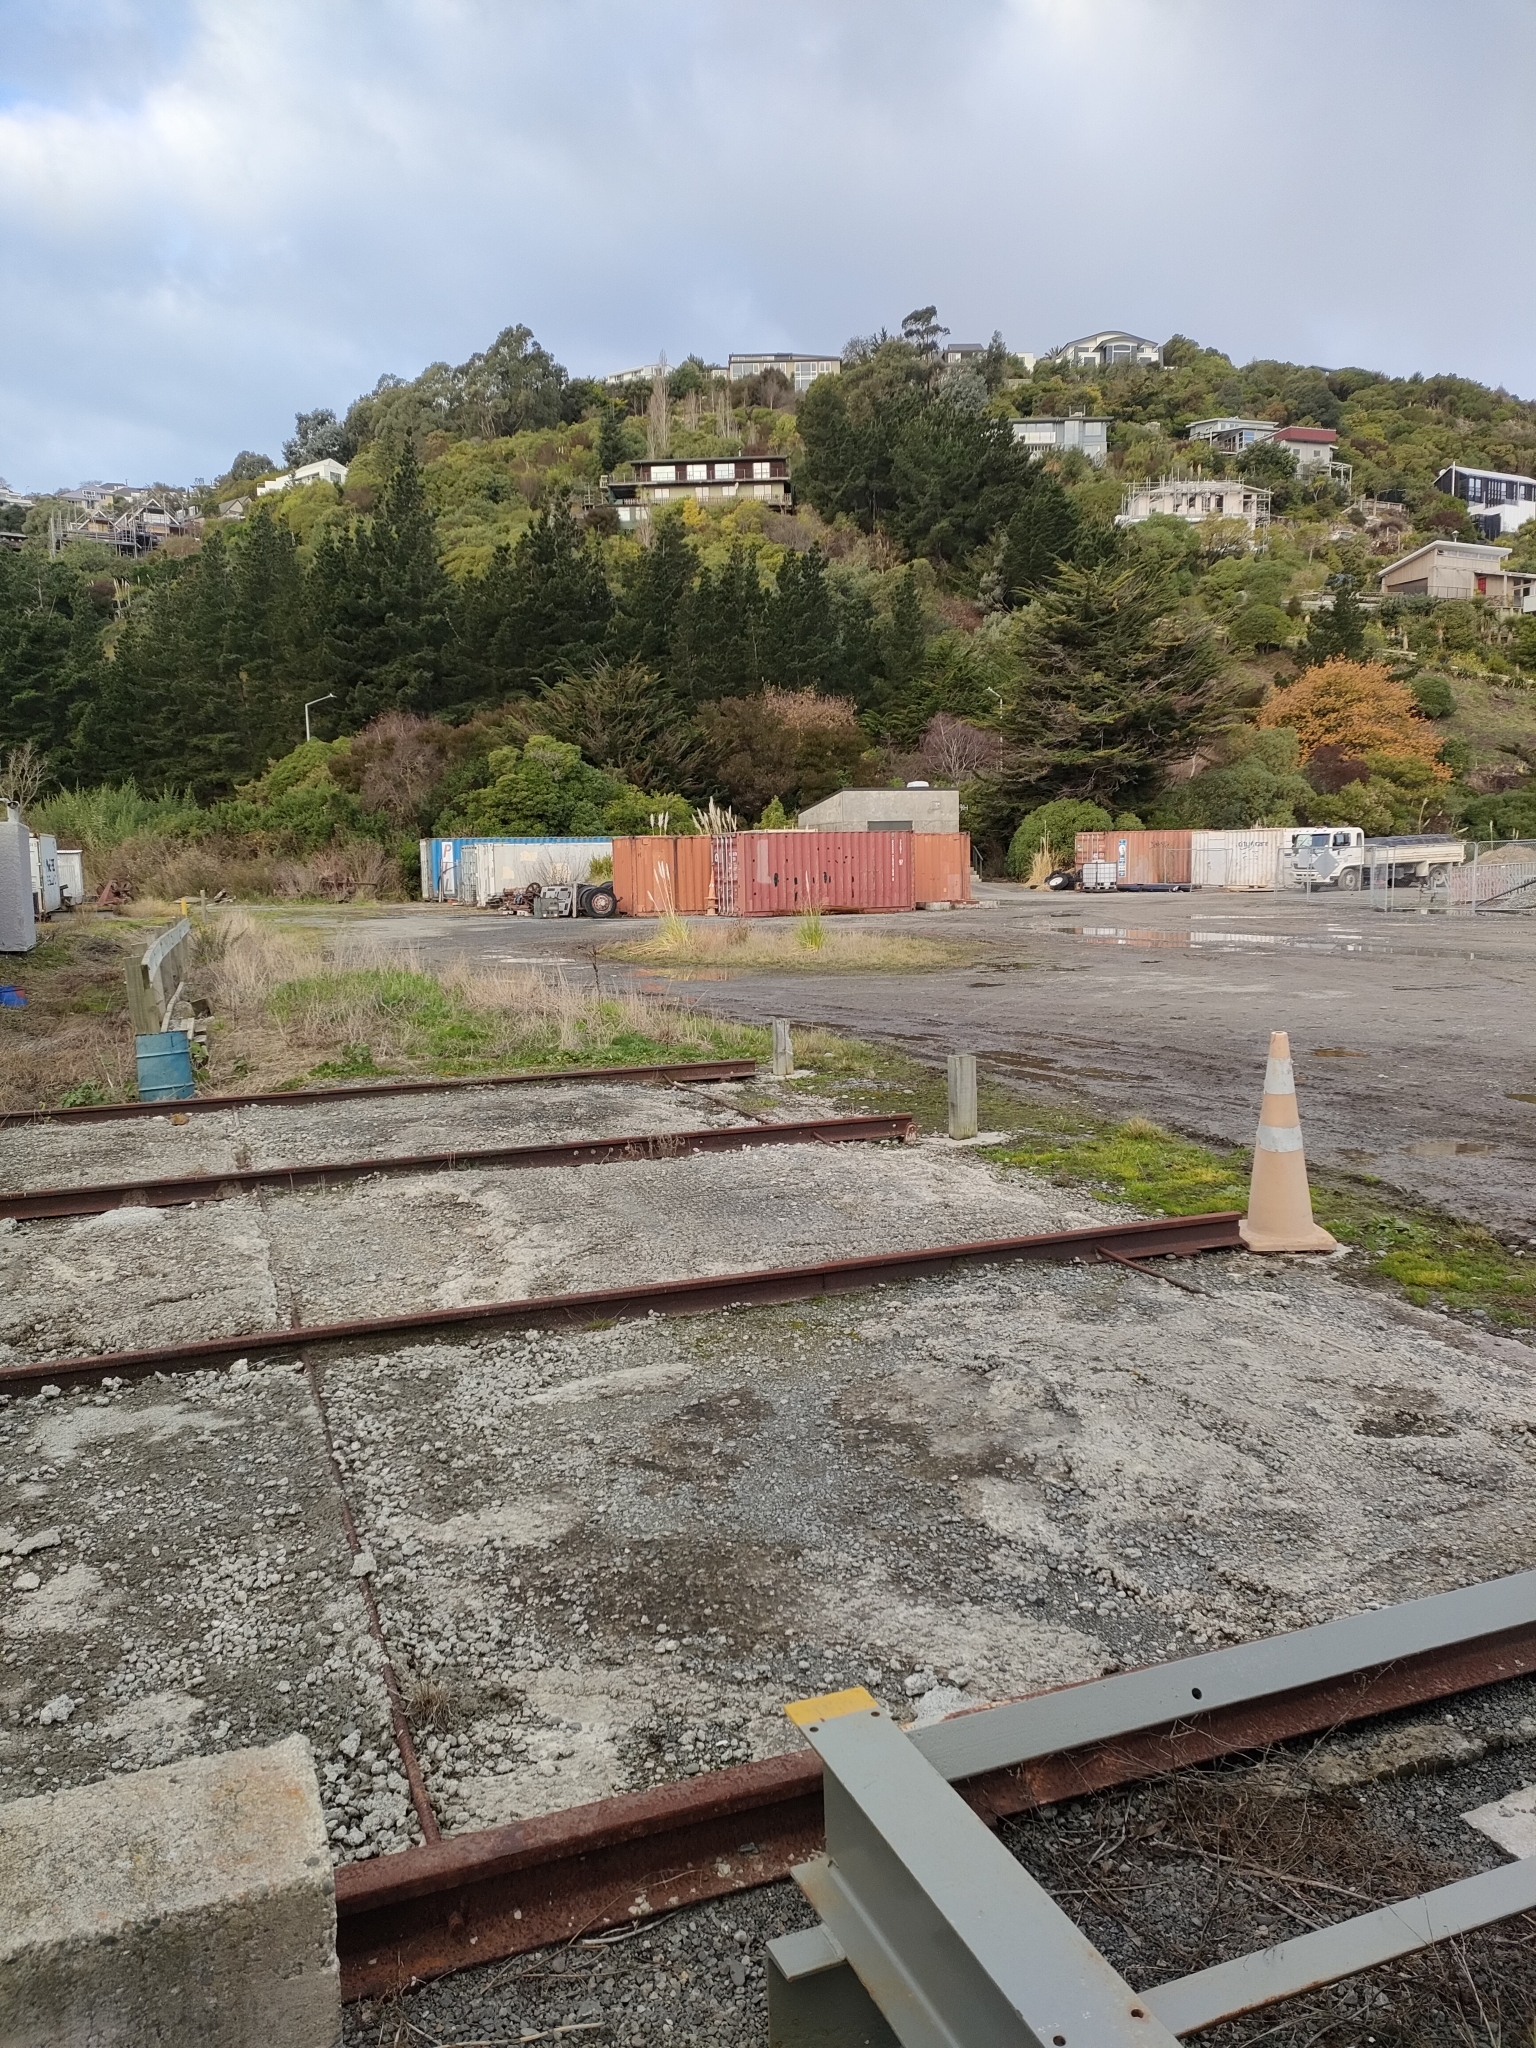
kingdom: Plantae
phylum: Tracheophyta
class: Magnoliopsida
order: Myrtales
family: Onagraceae
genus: Epilobium
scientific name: Epilobium hirtigerum
